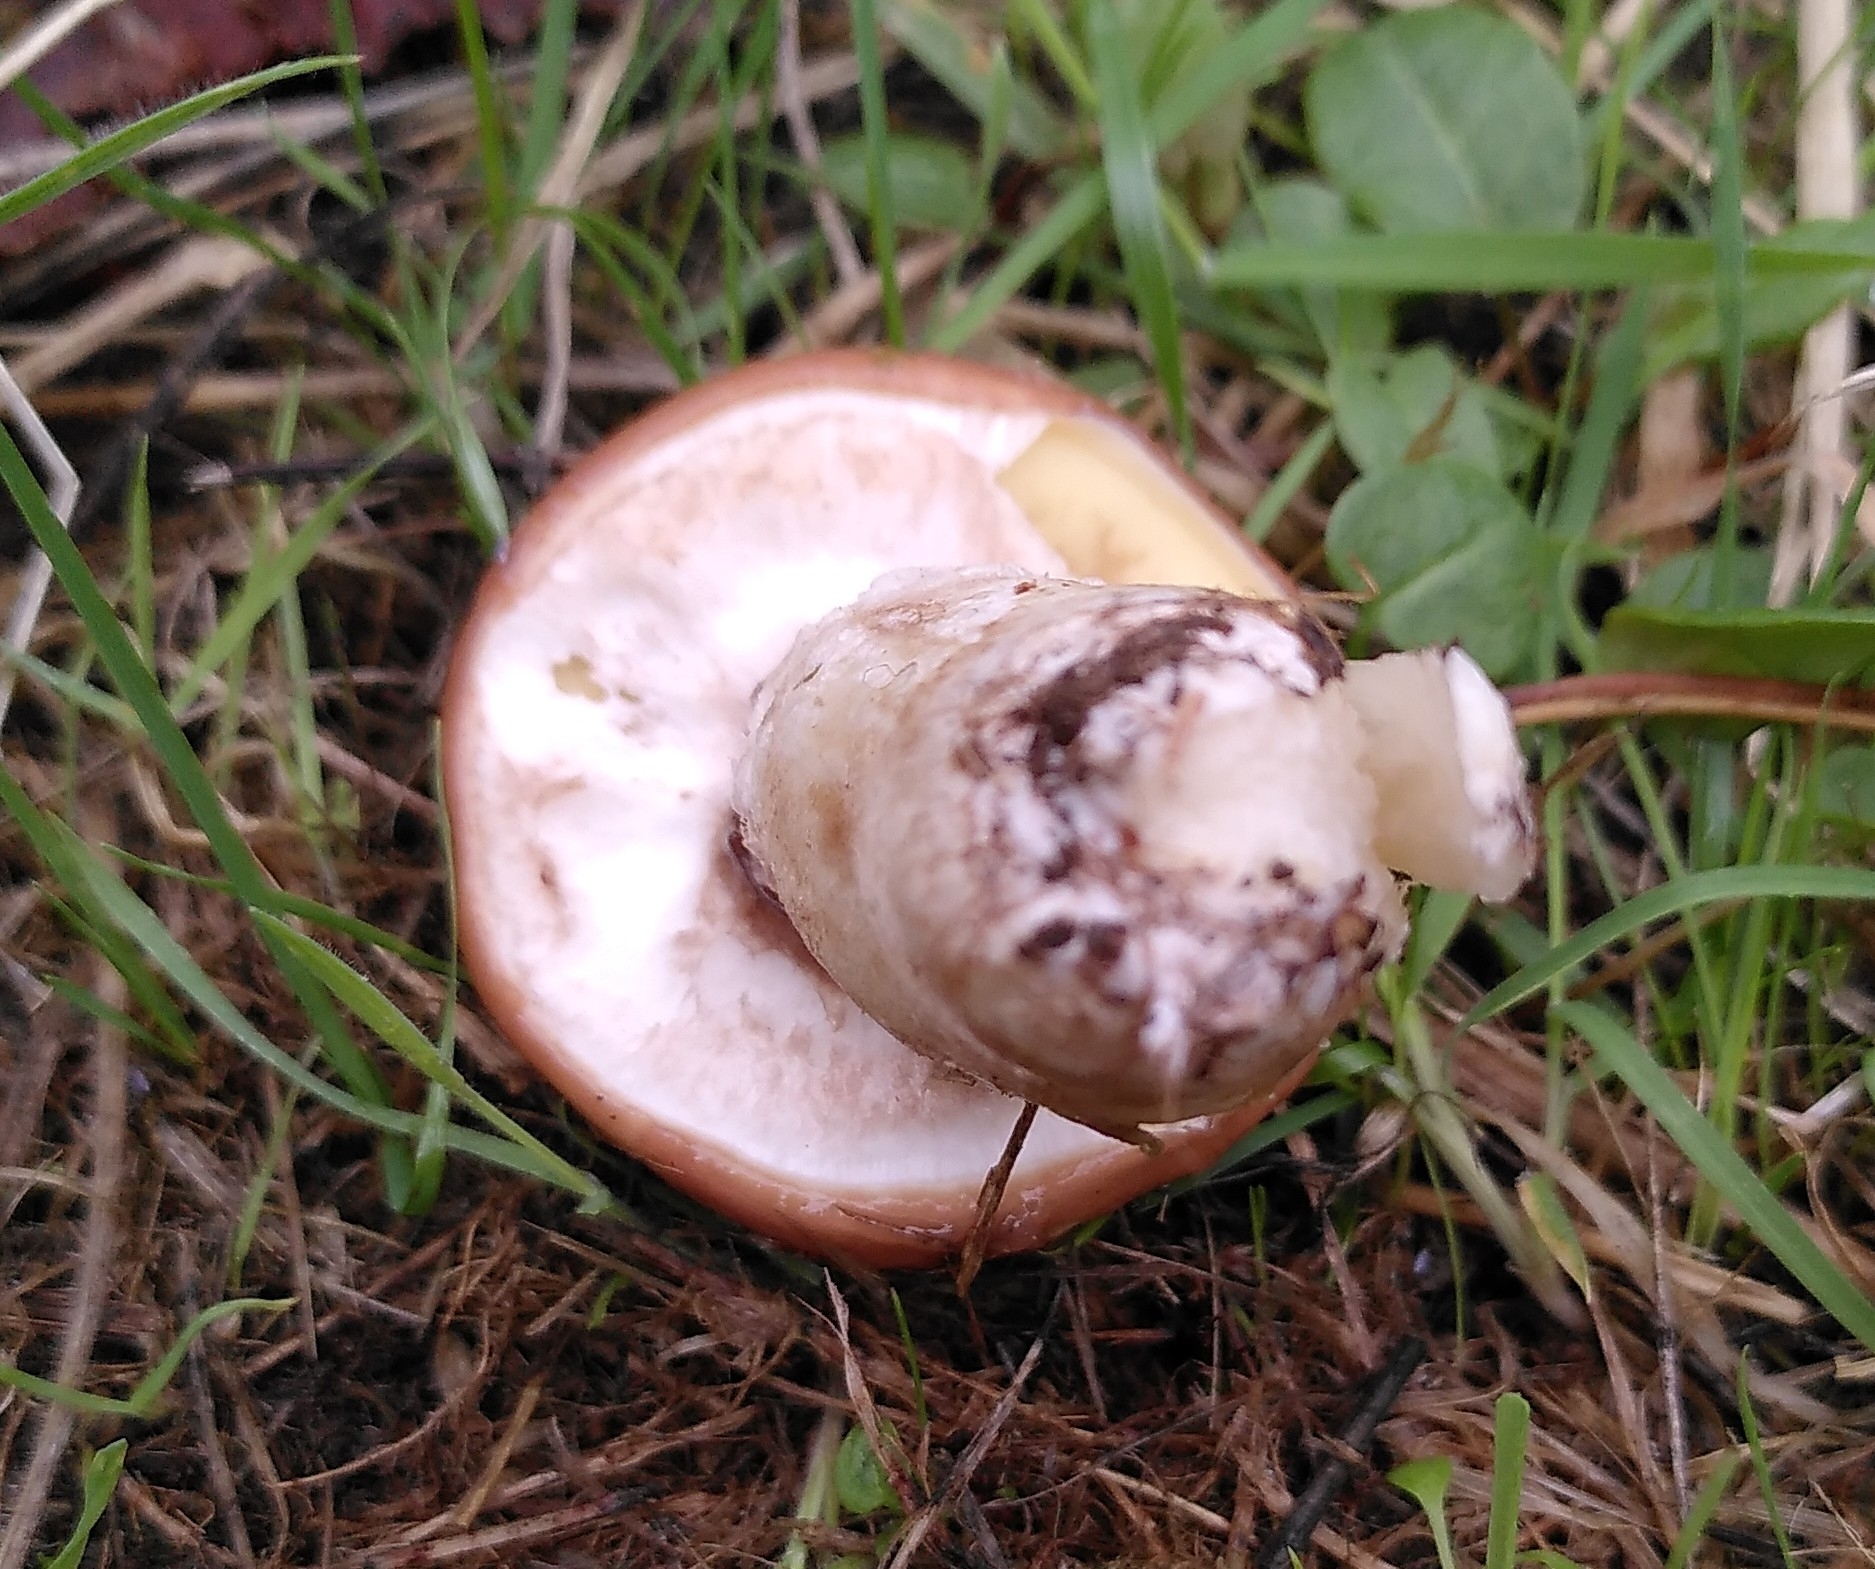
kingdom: Fungi
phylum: Basidiomycota
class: Agaricomycetes
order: Boletales
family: Suillaceae
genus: Suillus
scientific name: Suillus luteus
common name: Slippery jack
